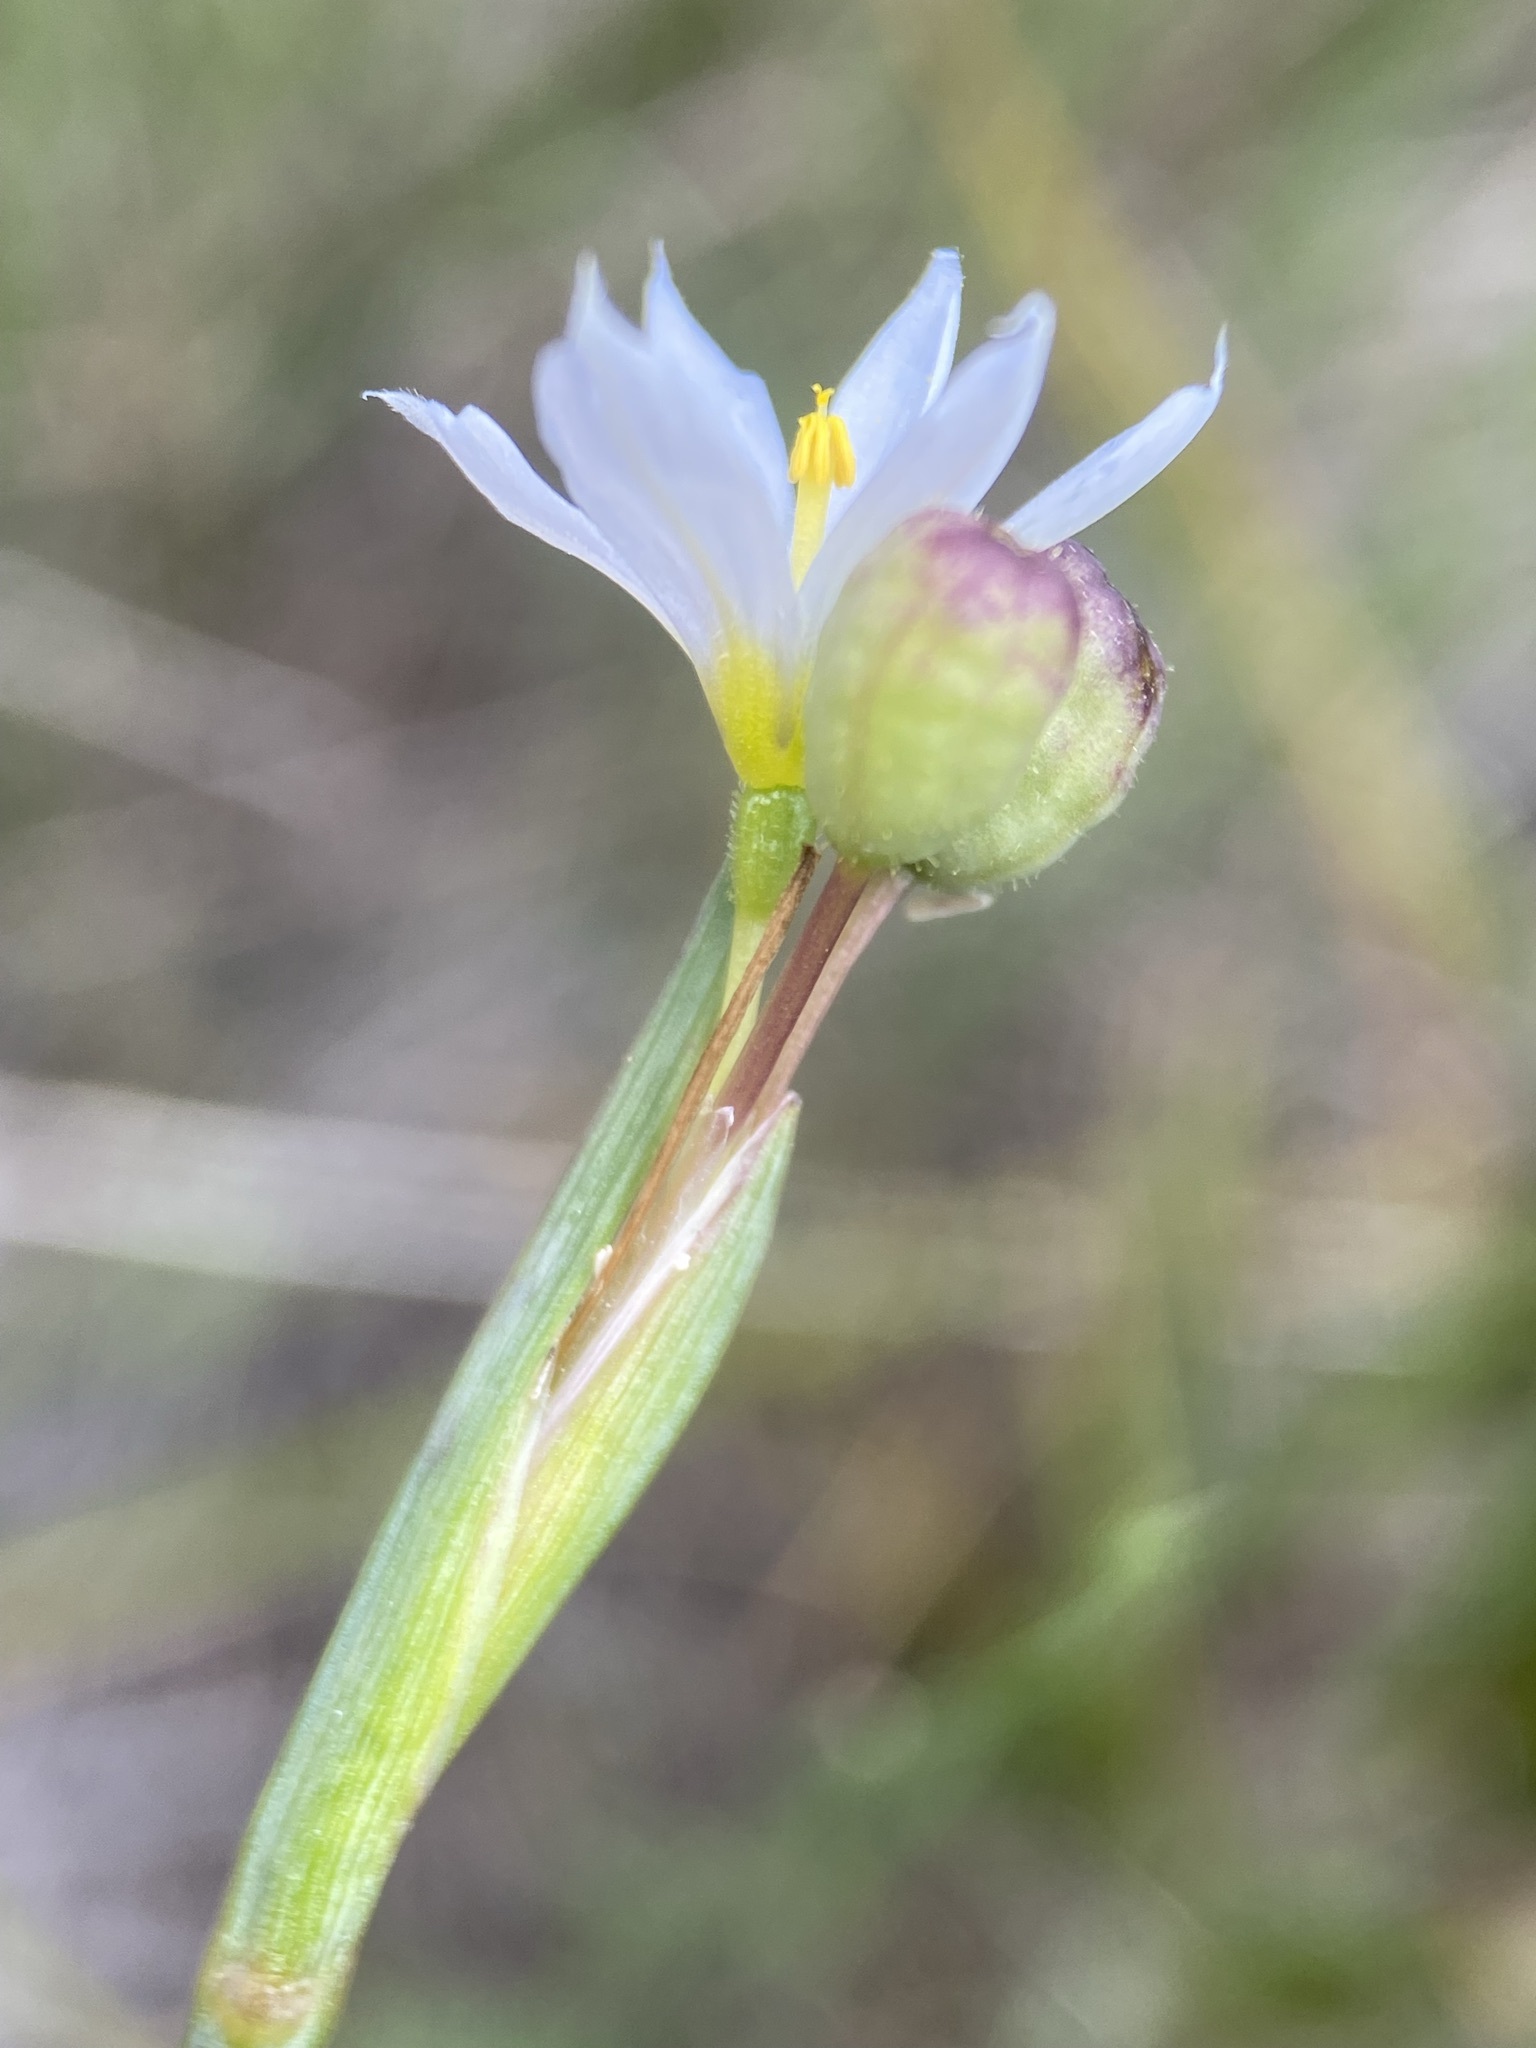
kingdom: Plantae
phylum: Tracheophyta
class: Liliopsida
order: Asparagales
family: Iridaceae
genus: Sisyrinchium
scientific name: Sisyrinchium pallidum
